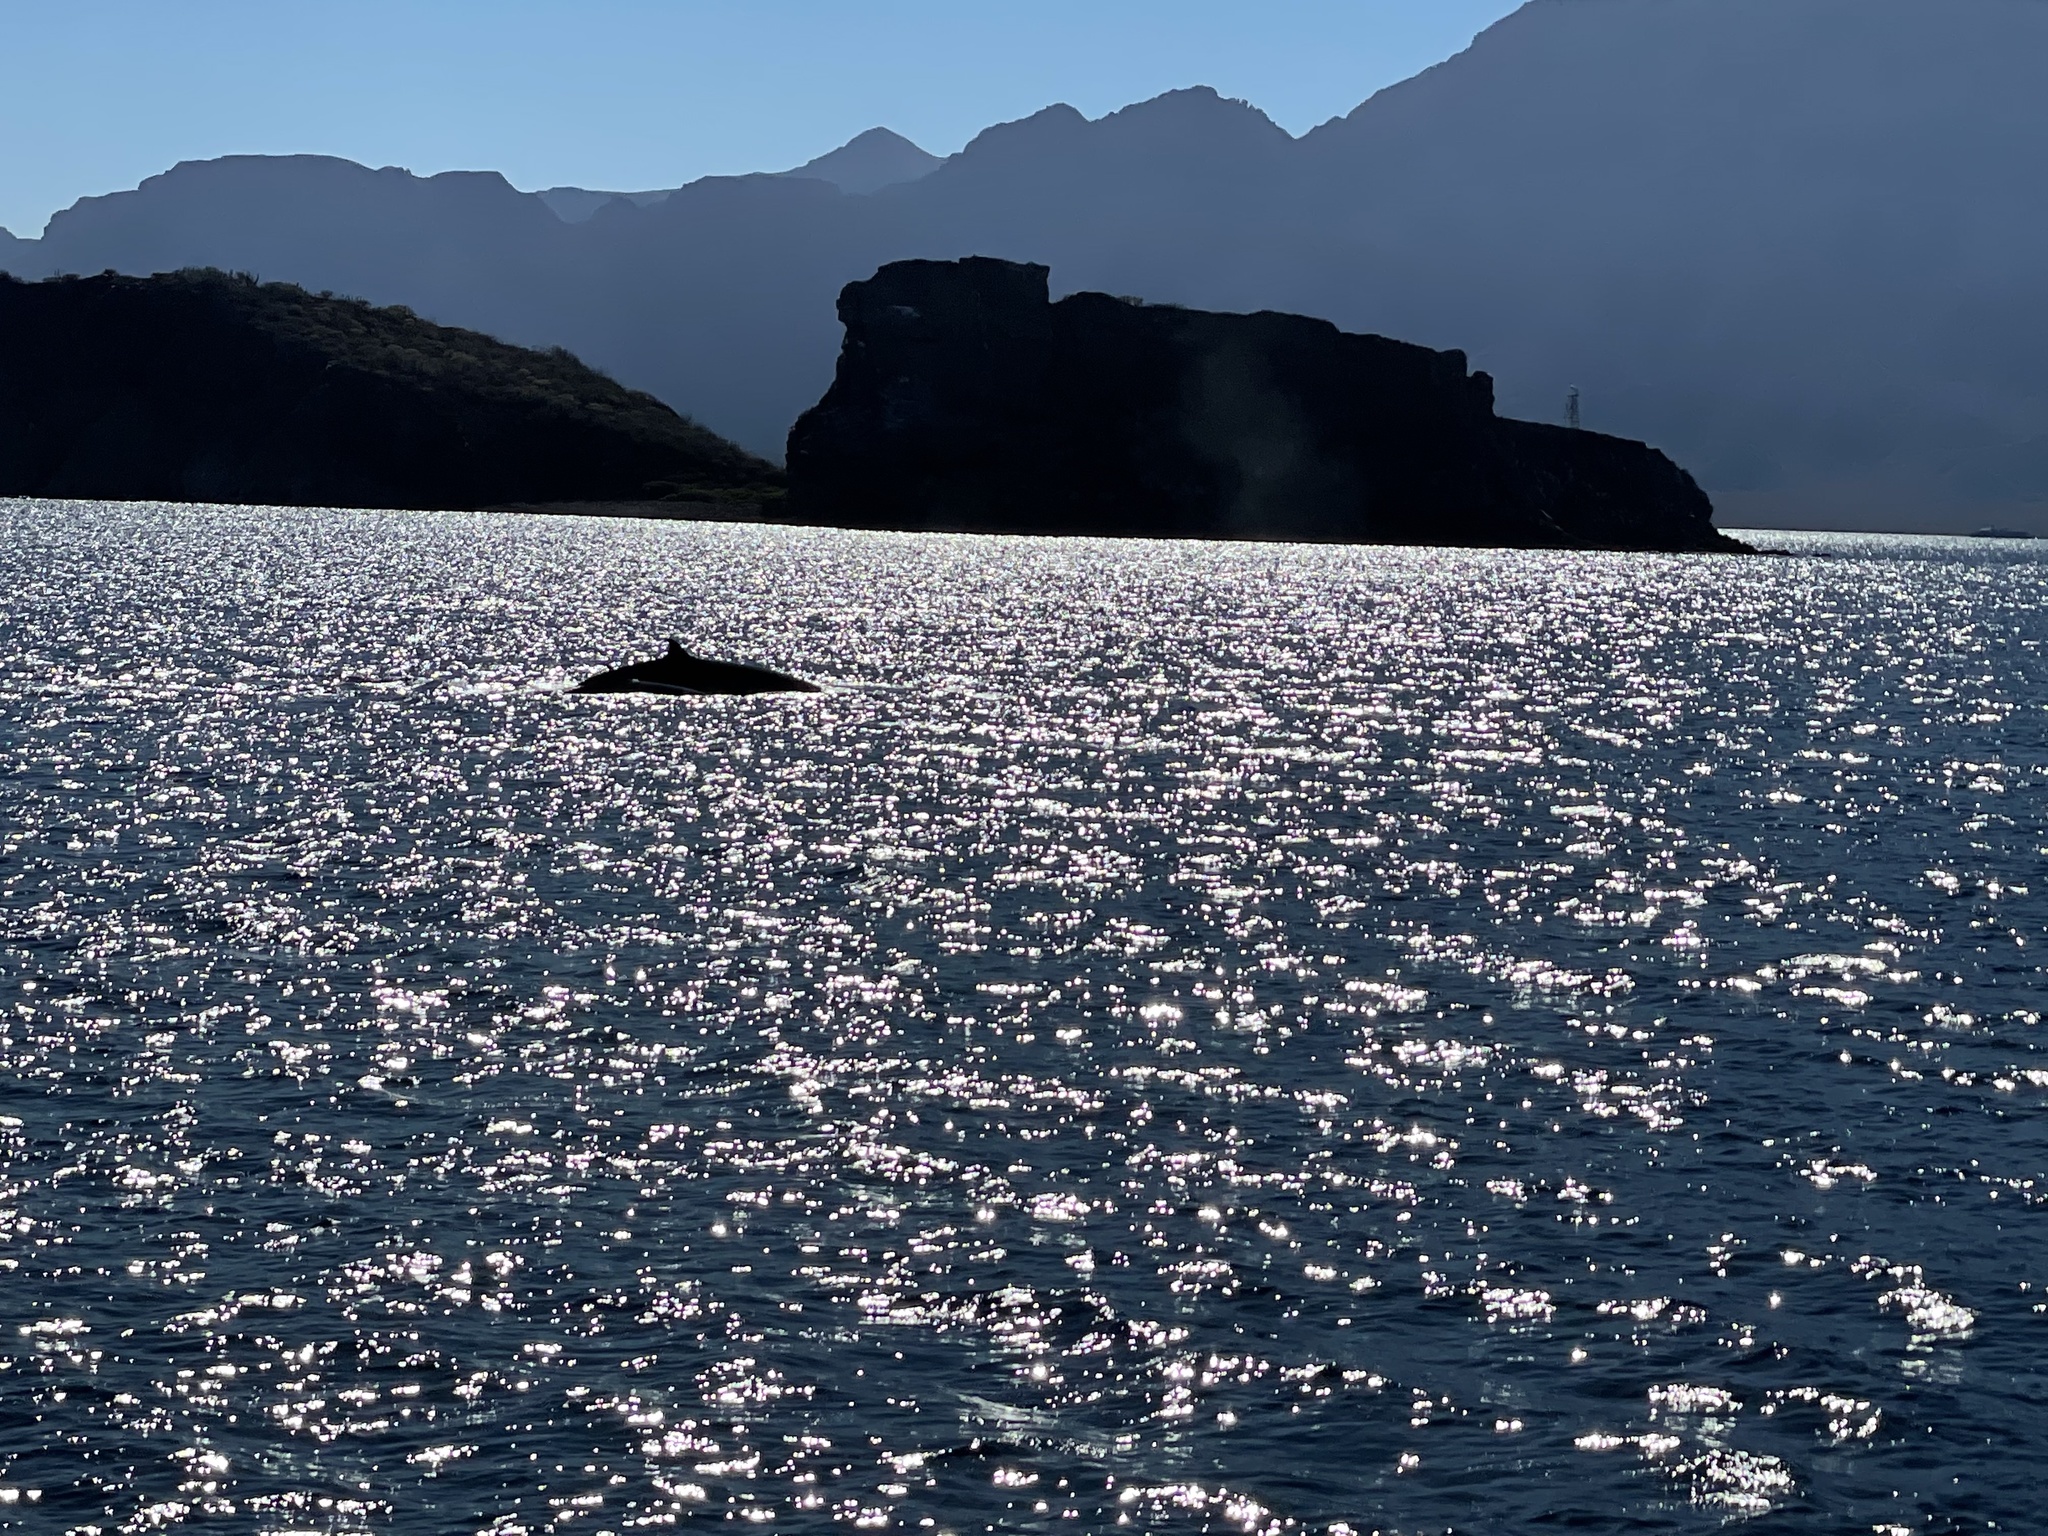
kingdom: Animalia
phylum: Chordata
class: Mammalia
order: Cetacea
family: Balaenopteridae
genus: Balaenoptera
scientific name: Balaenoptera physalus
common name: Fin whale
